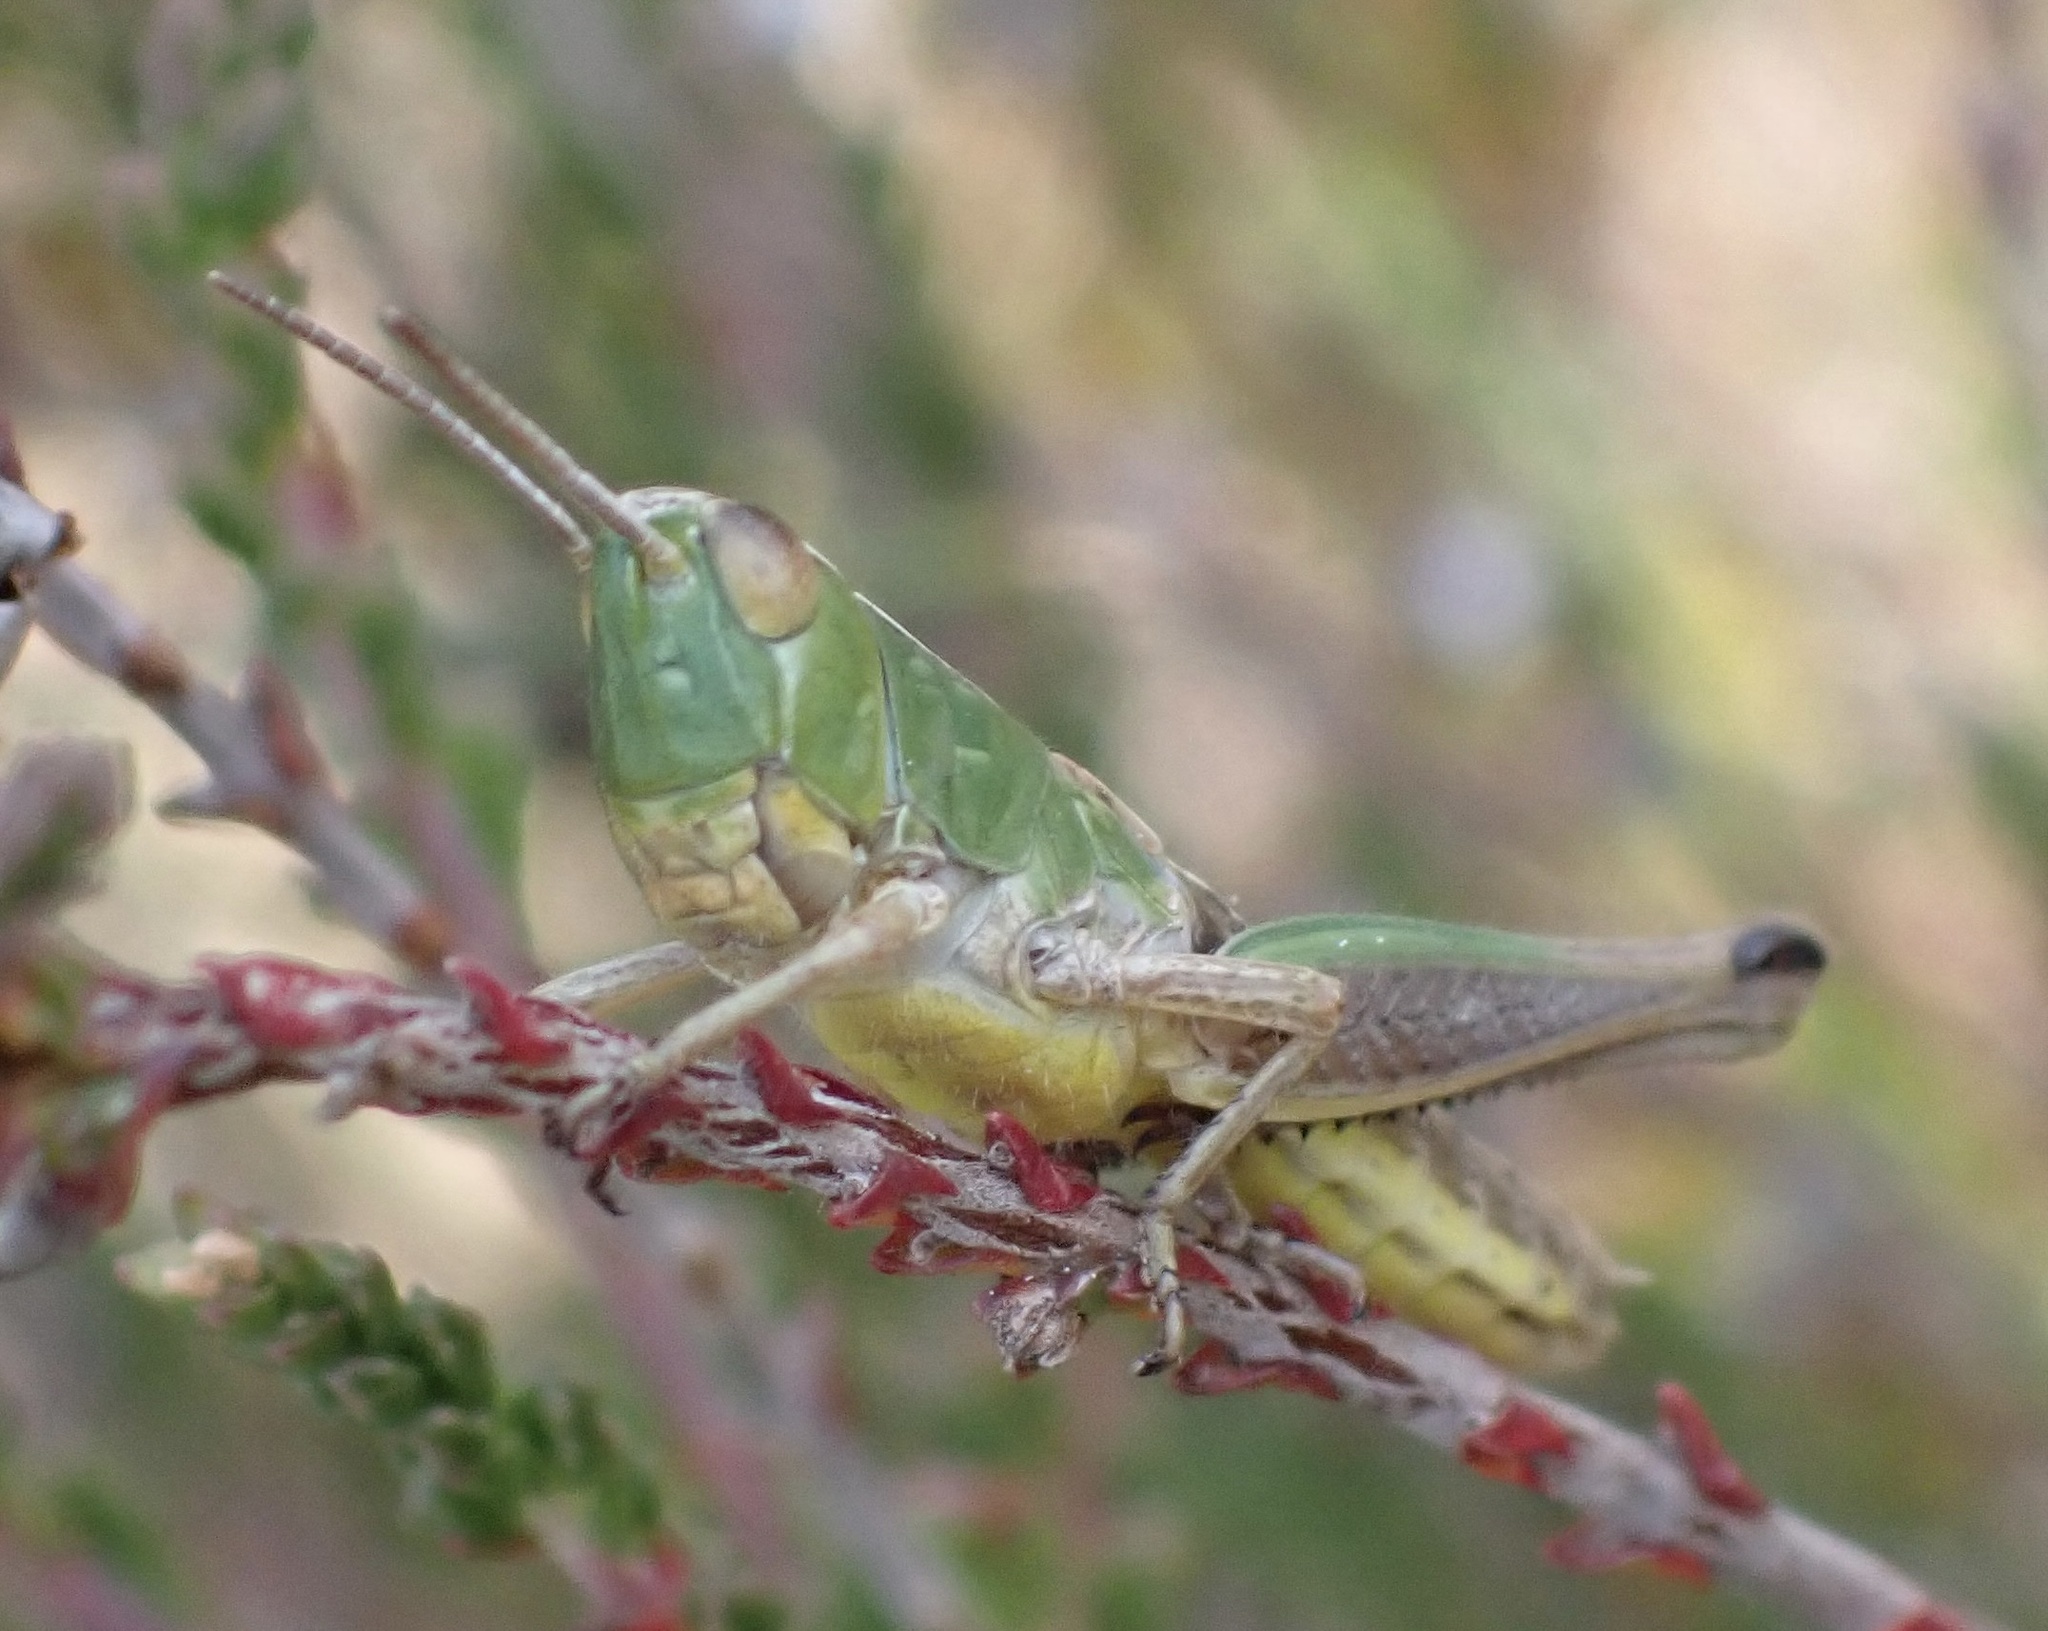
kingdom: Animalia
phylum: Arthropoda
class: Insecta
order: Orthoptera
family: Acrididae
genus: Pseudochorthippus
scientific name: Pseudochorthippus parallelus
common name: Meadow grasshopper
